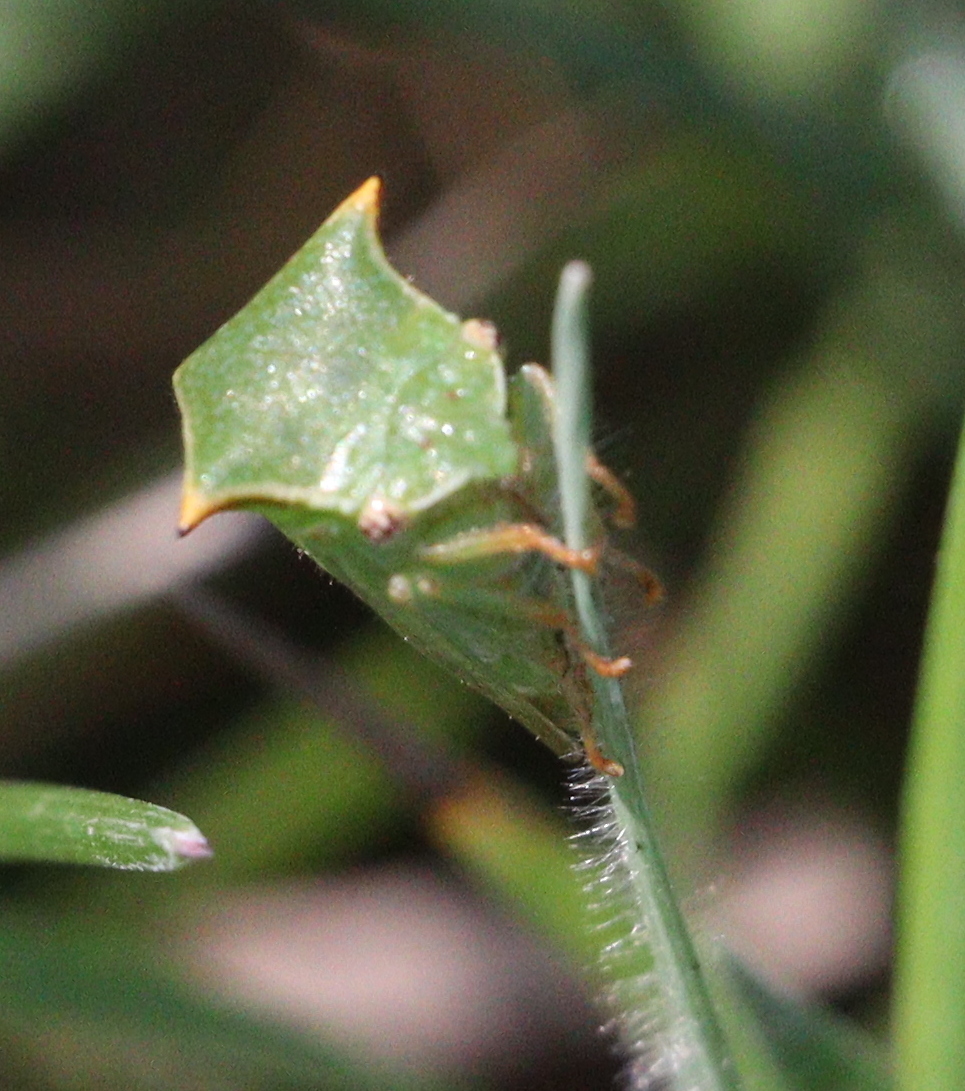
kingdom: Animalia
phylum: Arthropoda
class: Insecta
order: Hemiptera
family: Membracidae
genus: Stictocephala
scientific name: Stictocephala bisonia
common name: American buffalo treehopper
